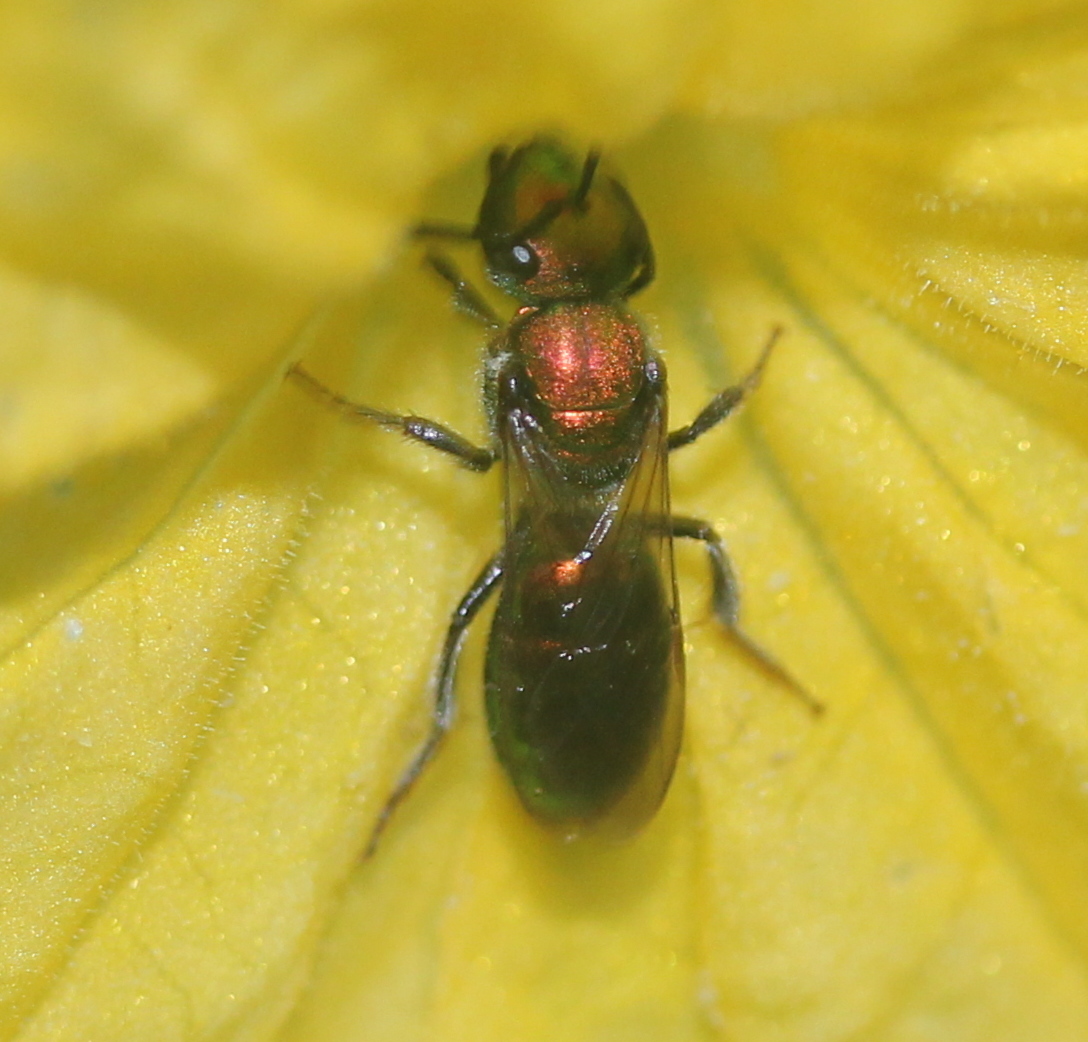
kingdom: Animalia
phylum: Arthropoda
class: Insecta
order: Hymenoptera
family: Halictidae
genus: Augochlora
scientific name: Augochlora pura
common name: Pure green sweat bee
